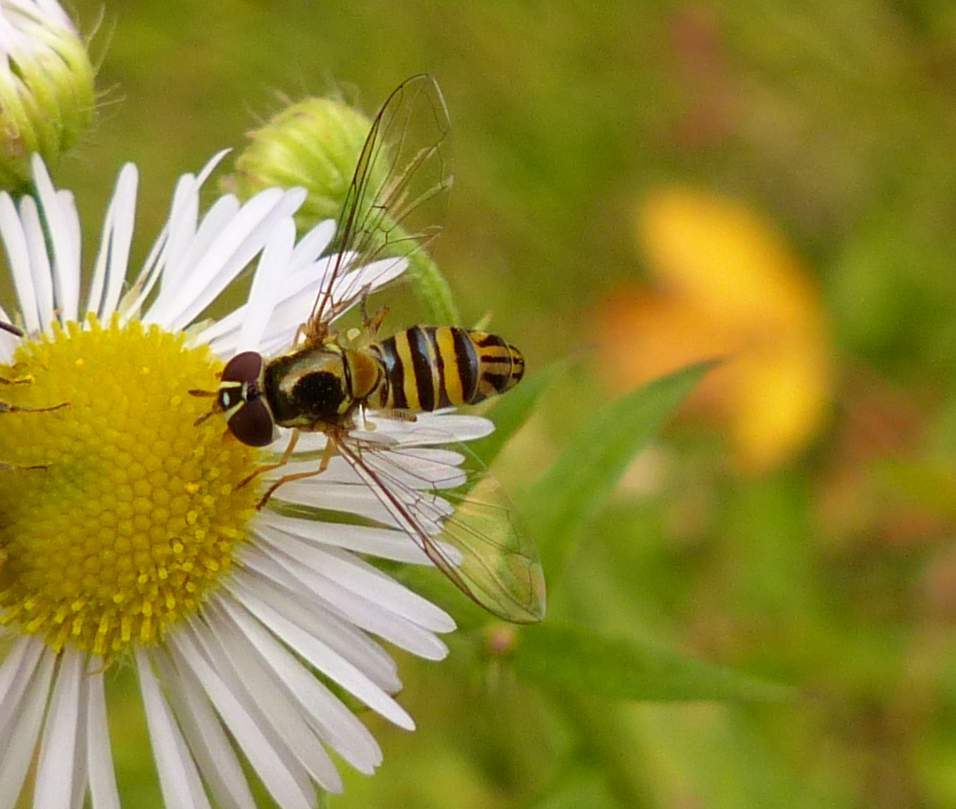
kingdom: Animalia
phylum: Arthropoda
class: Insecta
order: Diptera
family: Syrphidae
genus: Allograpta
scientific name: Allograpta obliqua
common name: Common oblique syrphid
